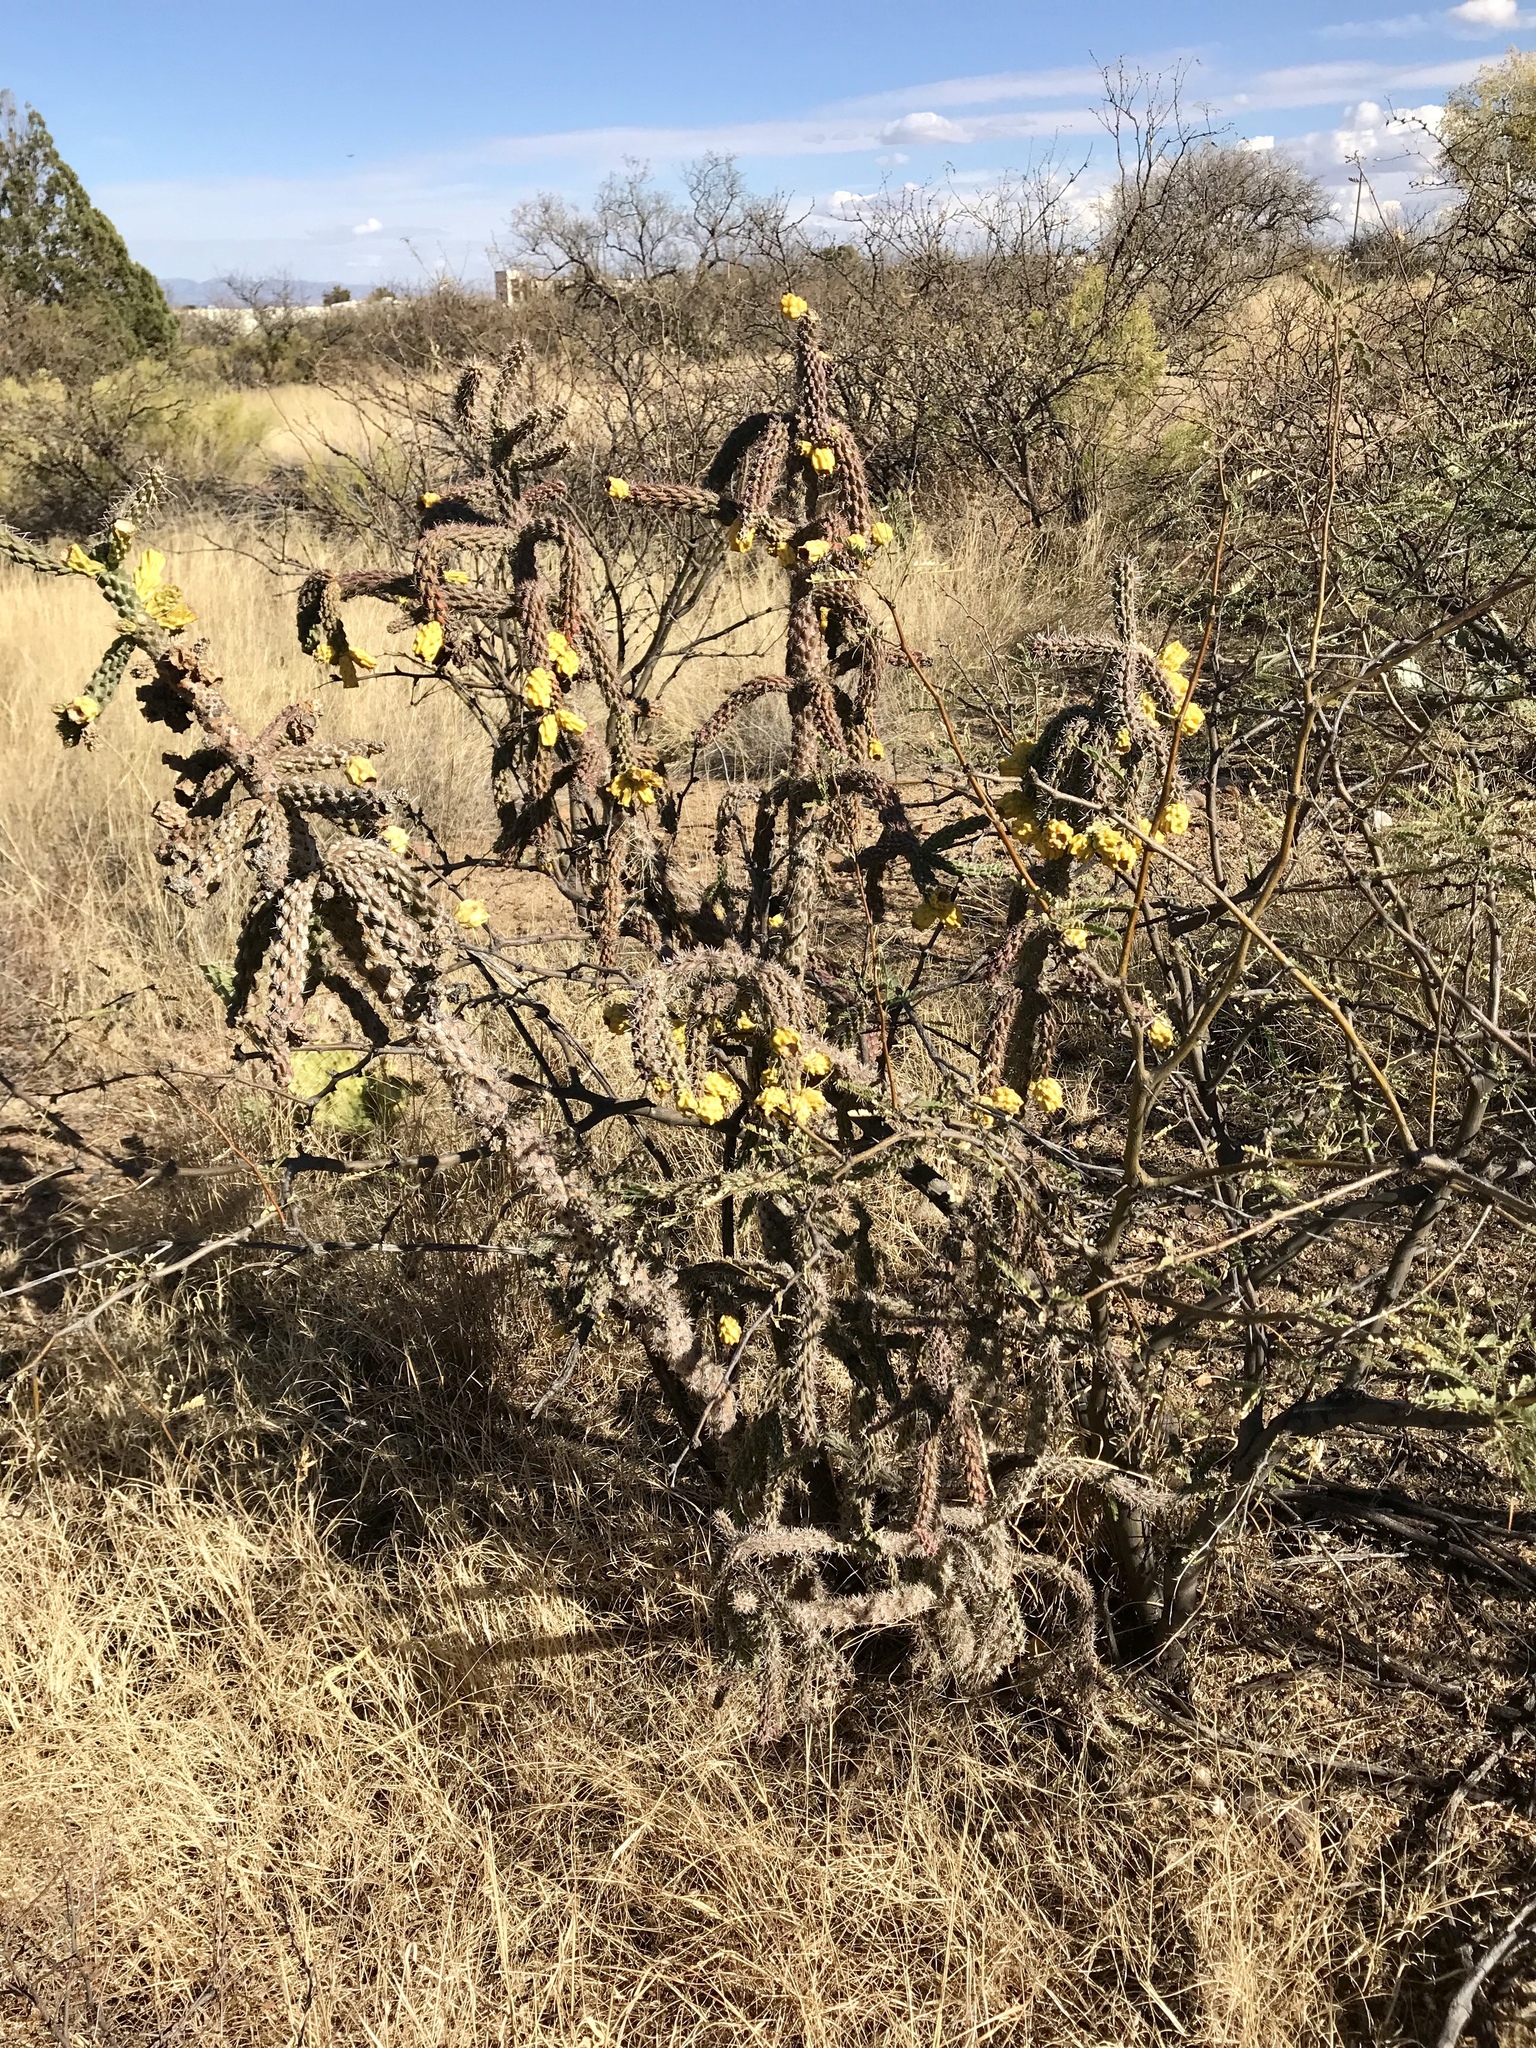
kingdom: Plantae
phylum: Tracheophyta
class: Magnoliopsida
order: Caryophyllales
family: Cactaceae
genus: Cylindropuntia
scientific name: Cylindropuntia imbricata
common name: Candelabrum cactus
